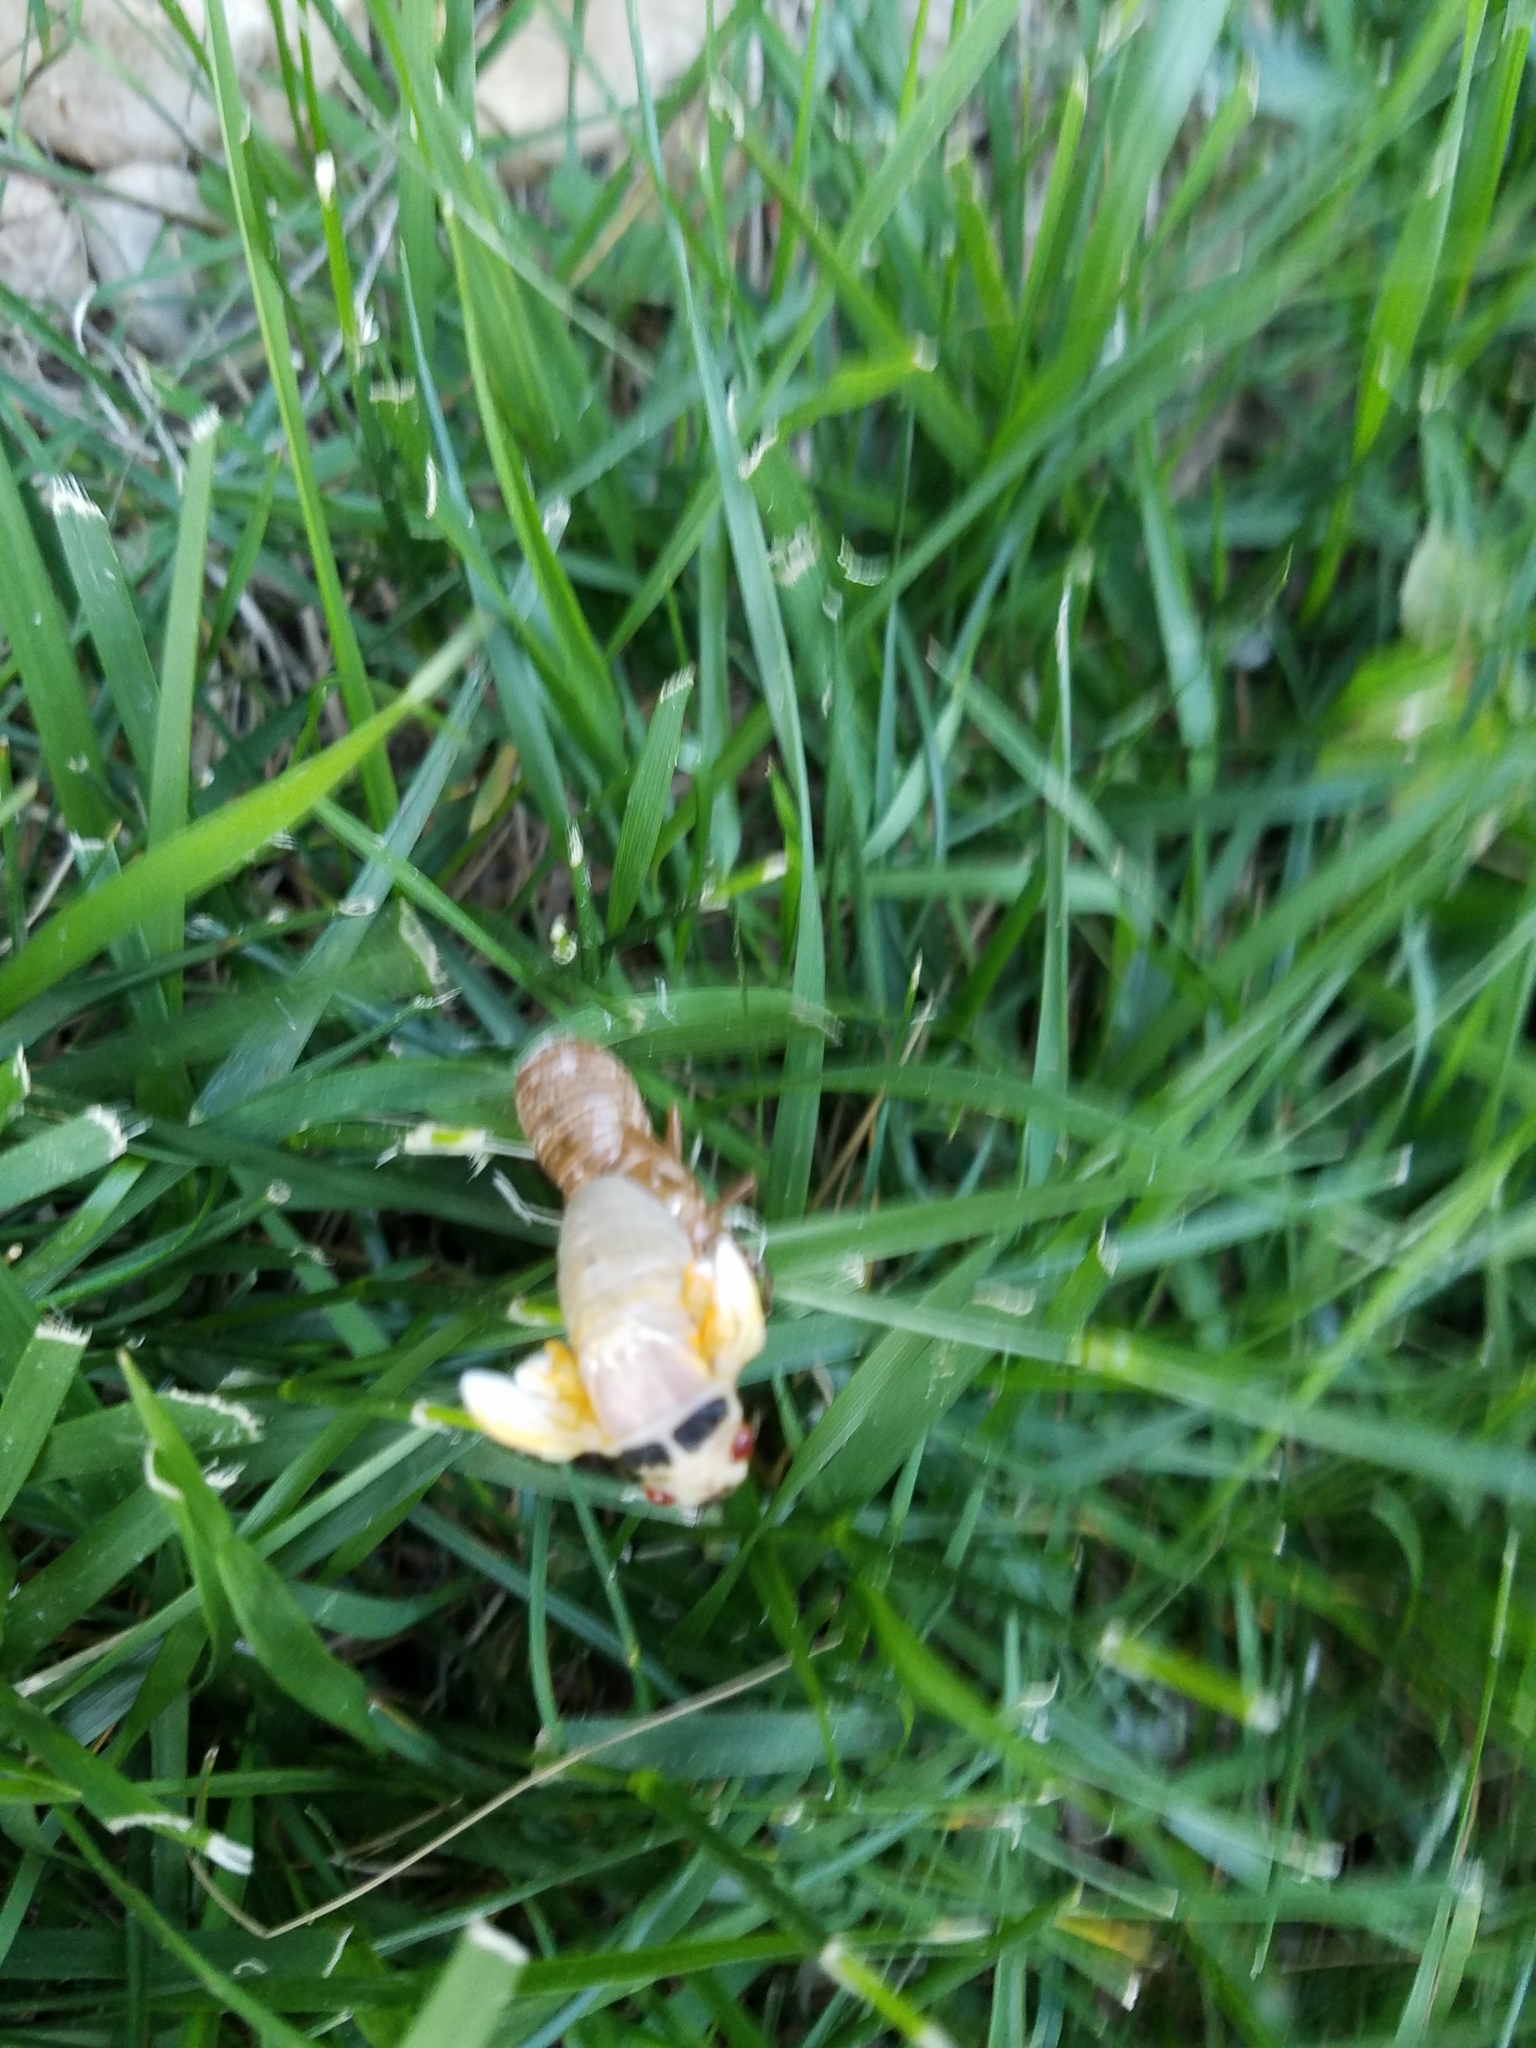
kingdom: Animalia
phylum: Arthropoda
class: Insecta
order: Hemiptera
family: Cicadidae
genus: Magicicada
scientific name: Magicicada
